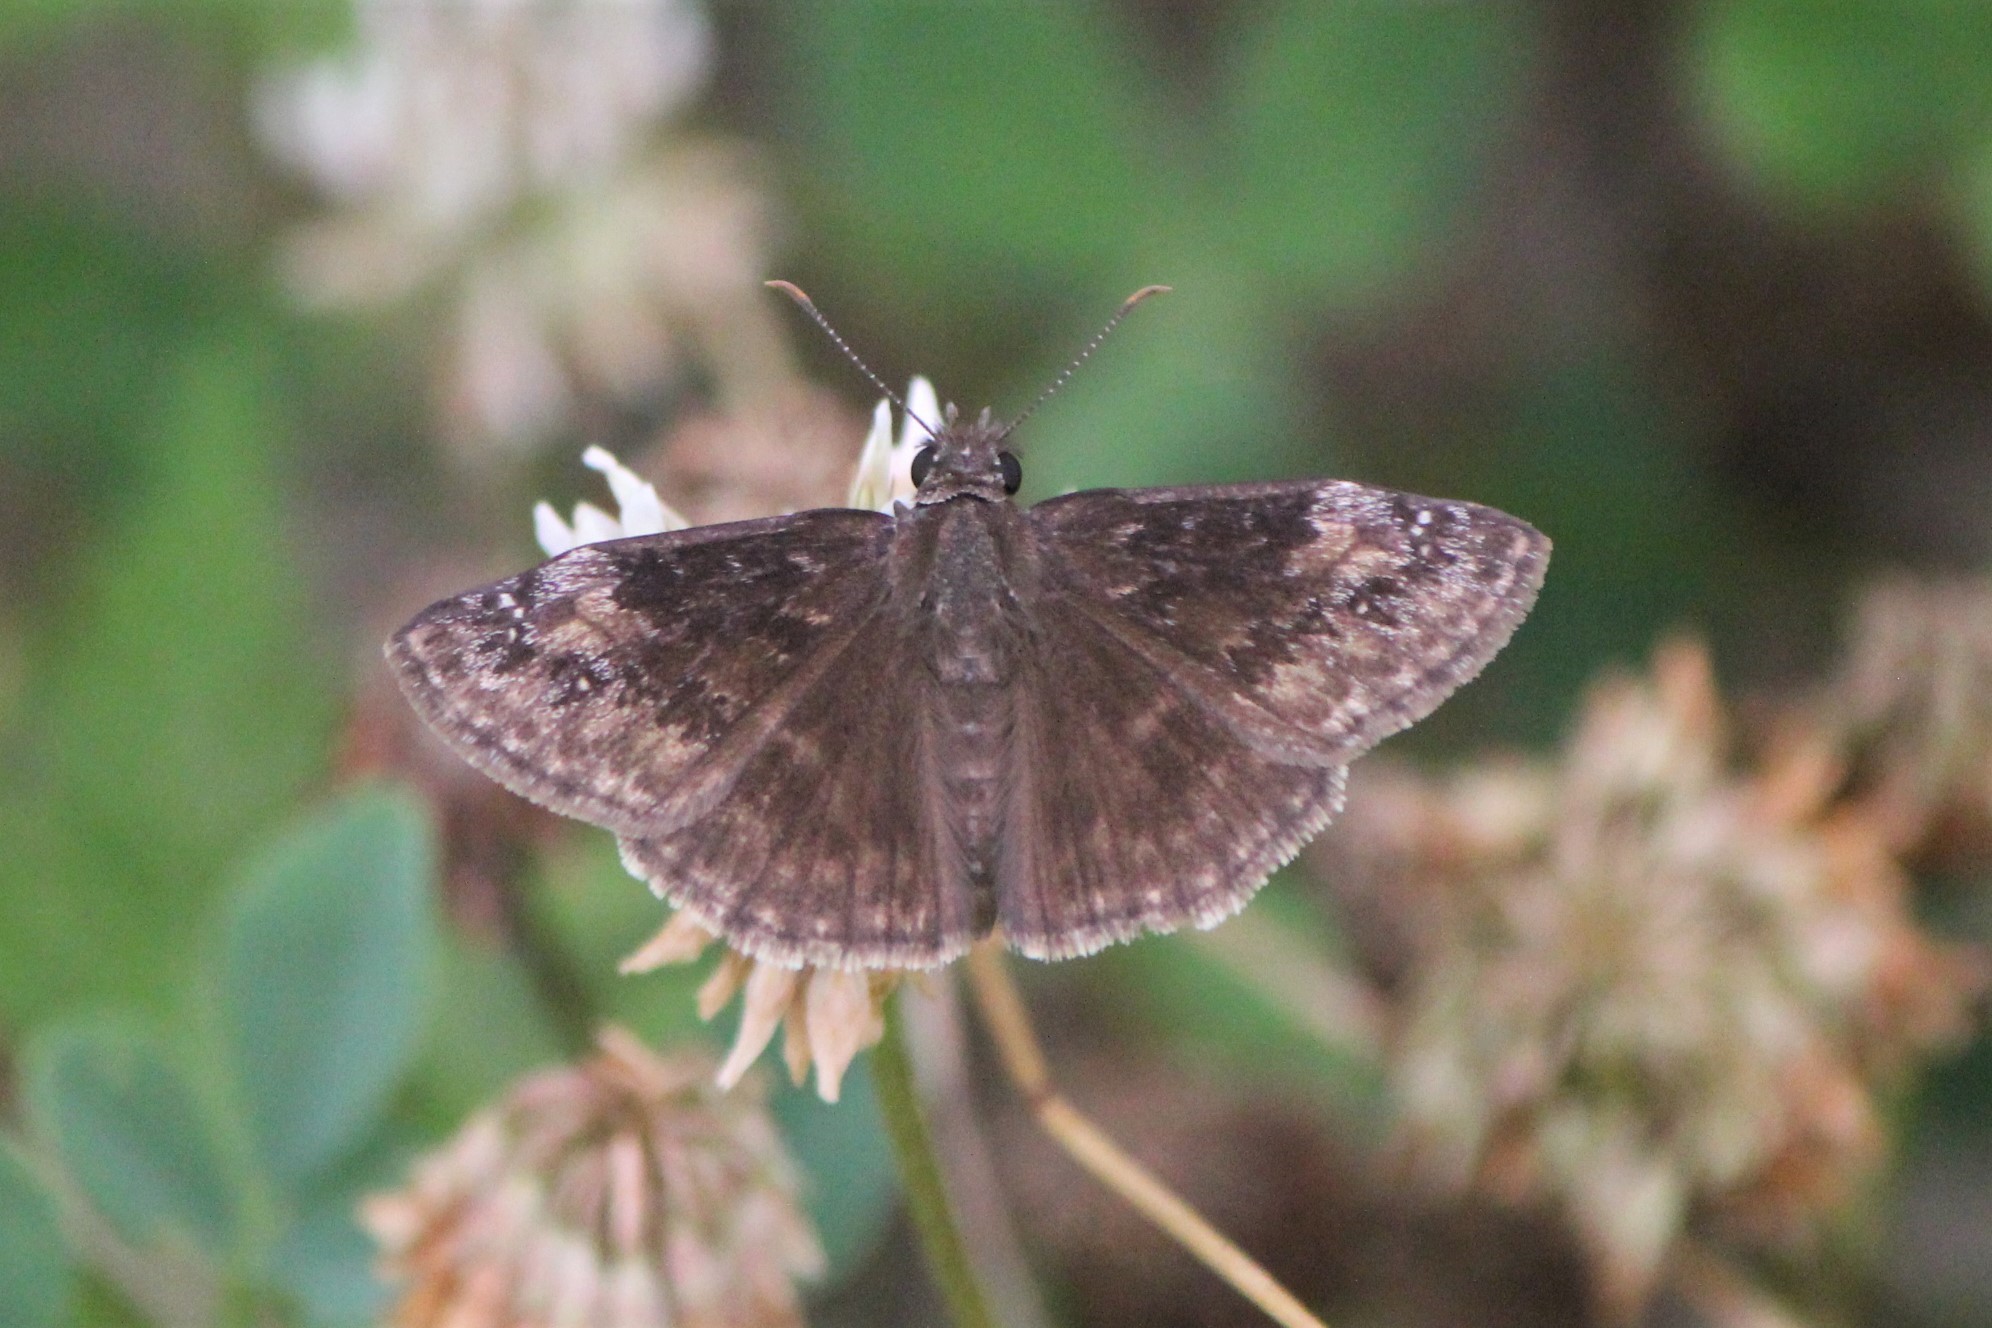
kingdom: Animalia
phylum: Arthropoda
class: Insecta
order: Lepidoptera
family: Hesperiidae
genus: Erynnis
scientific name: Erynnis baptisiae
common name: Wild indigo duskywing
